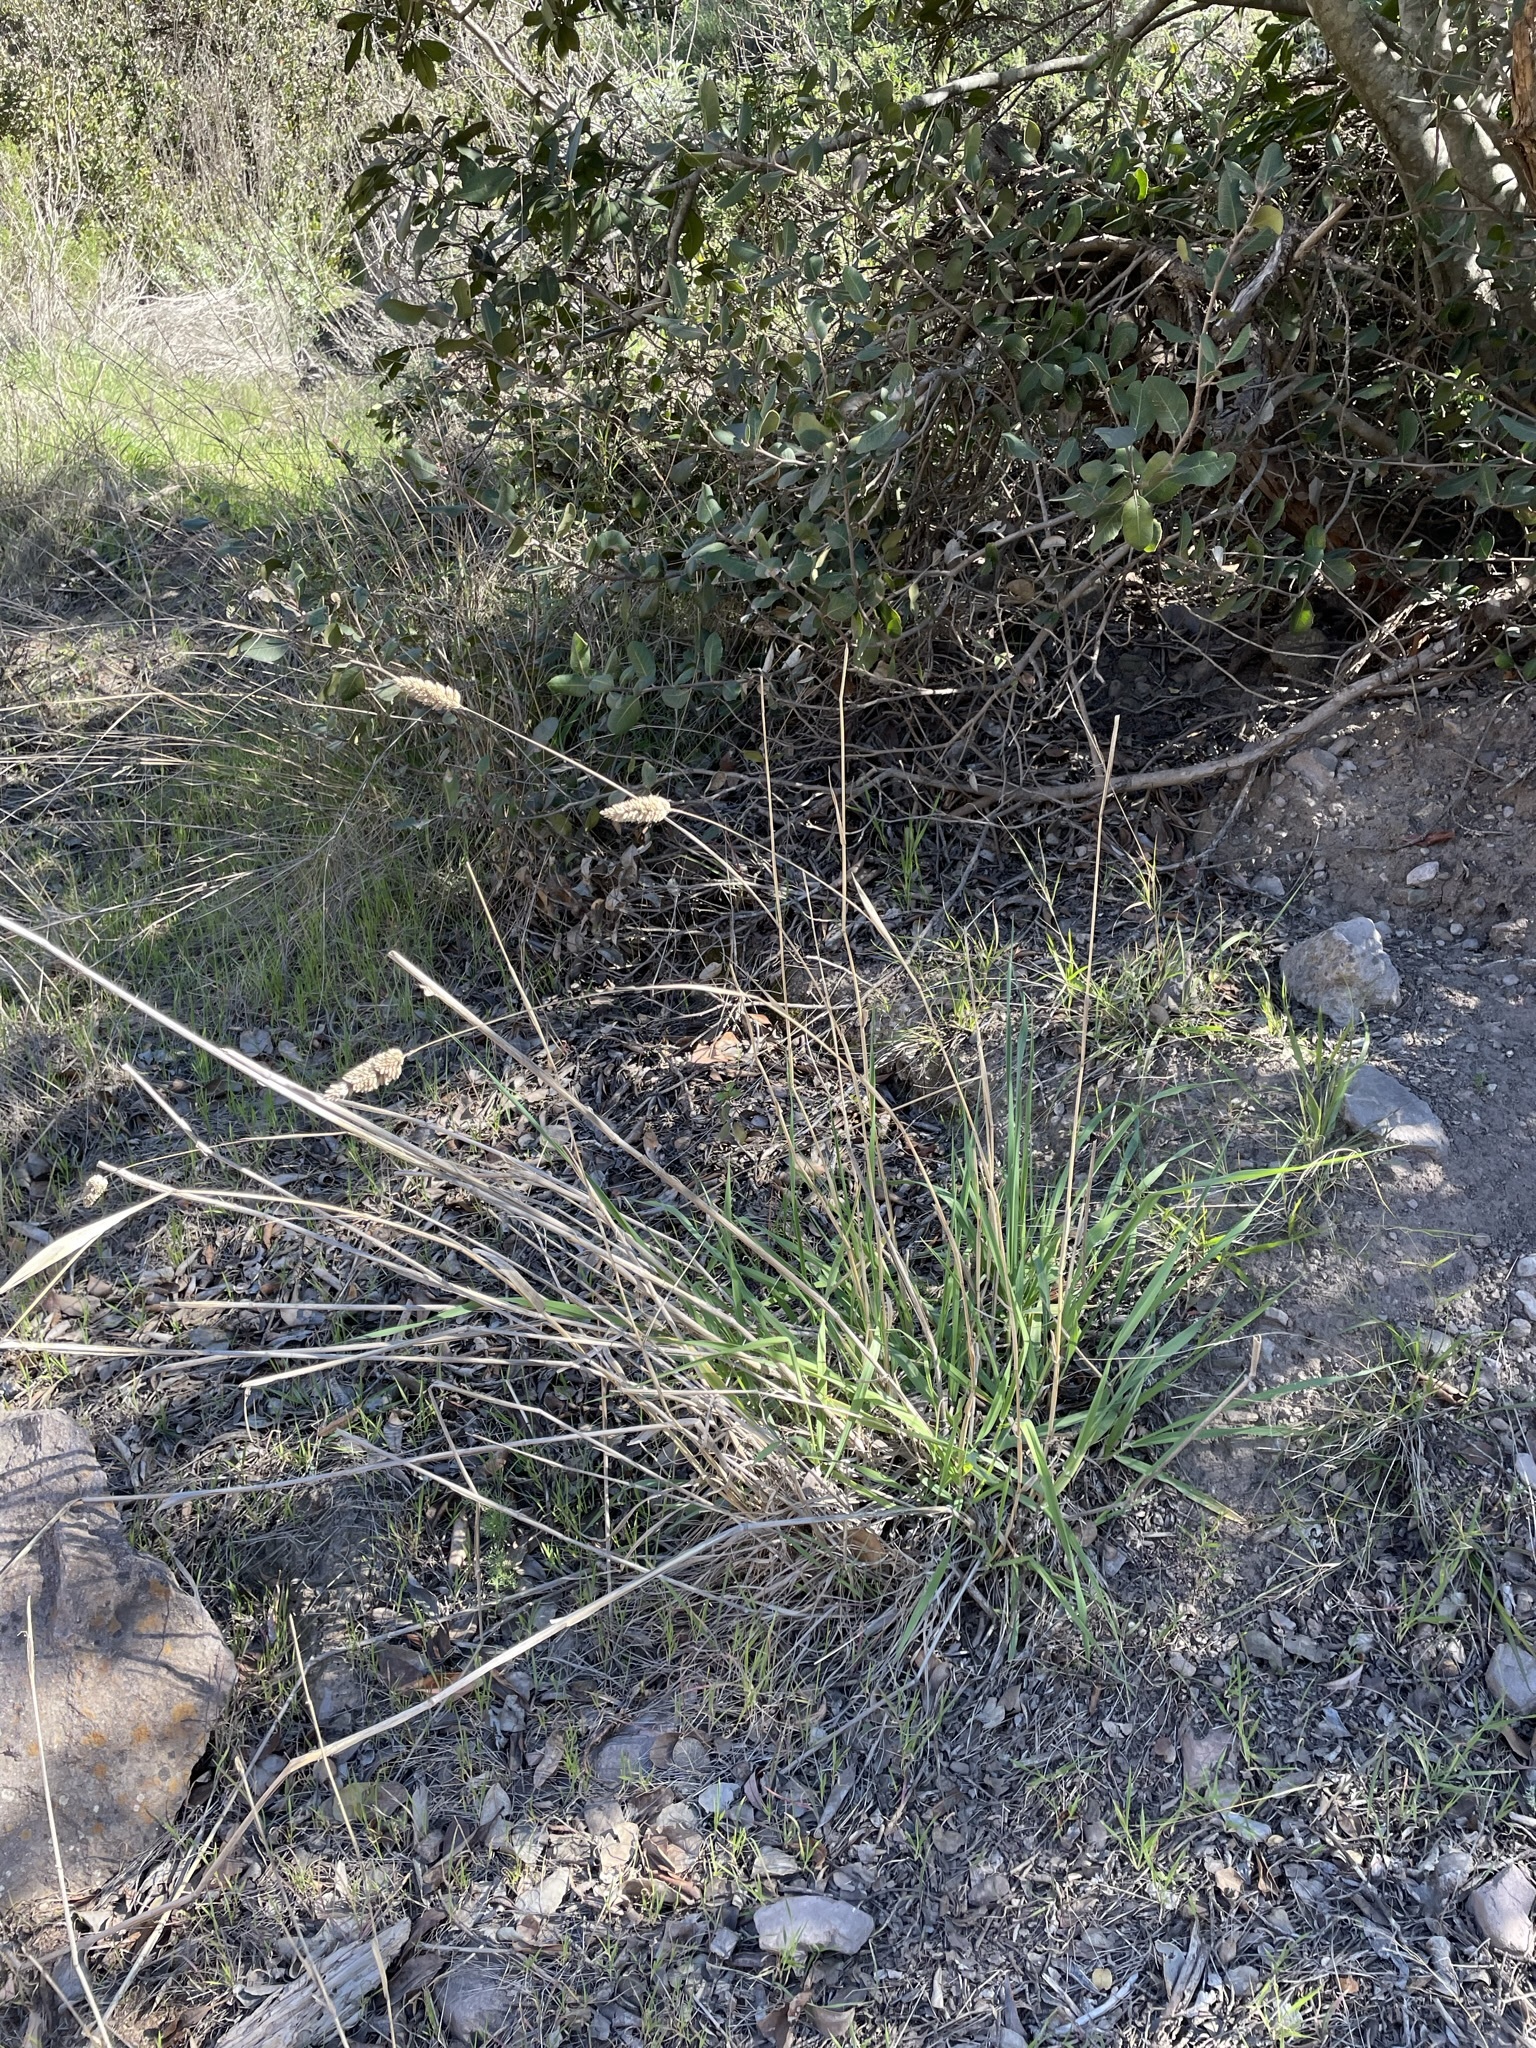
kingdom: Plantae
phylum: Tracheophyta
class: Liliopsida
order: Poales
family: Poaceae
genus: Phalaris
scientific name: Phalaris aquatica
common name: Bulbous canary-grass
